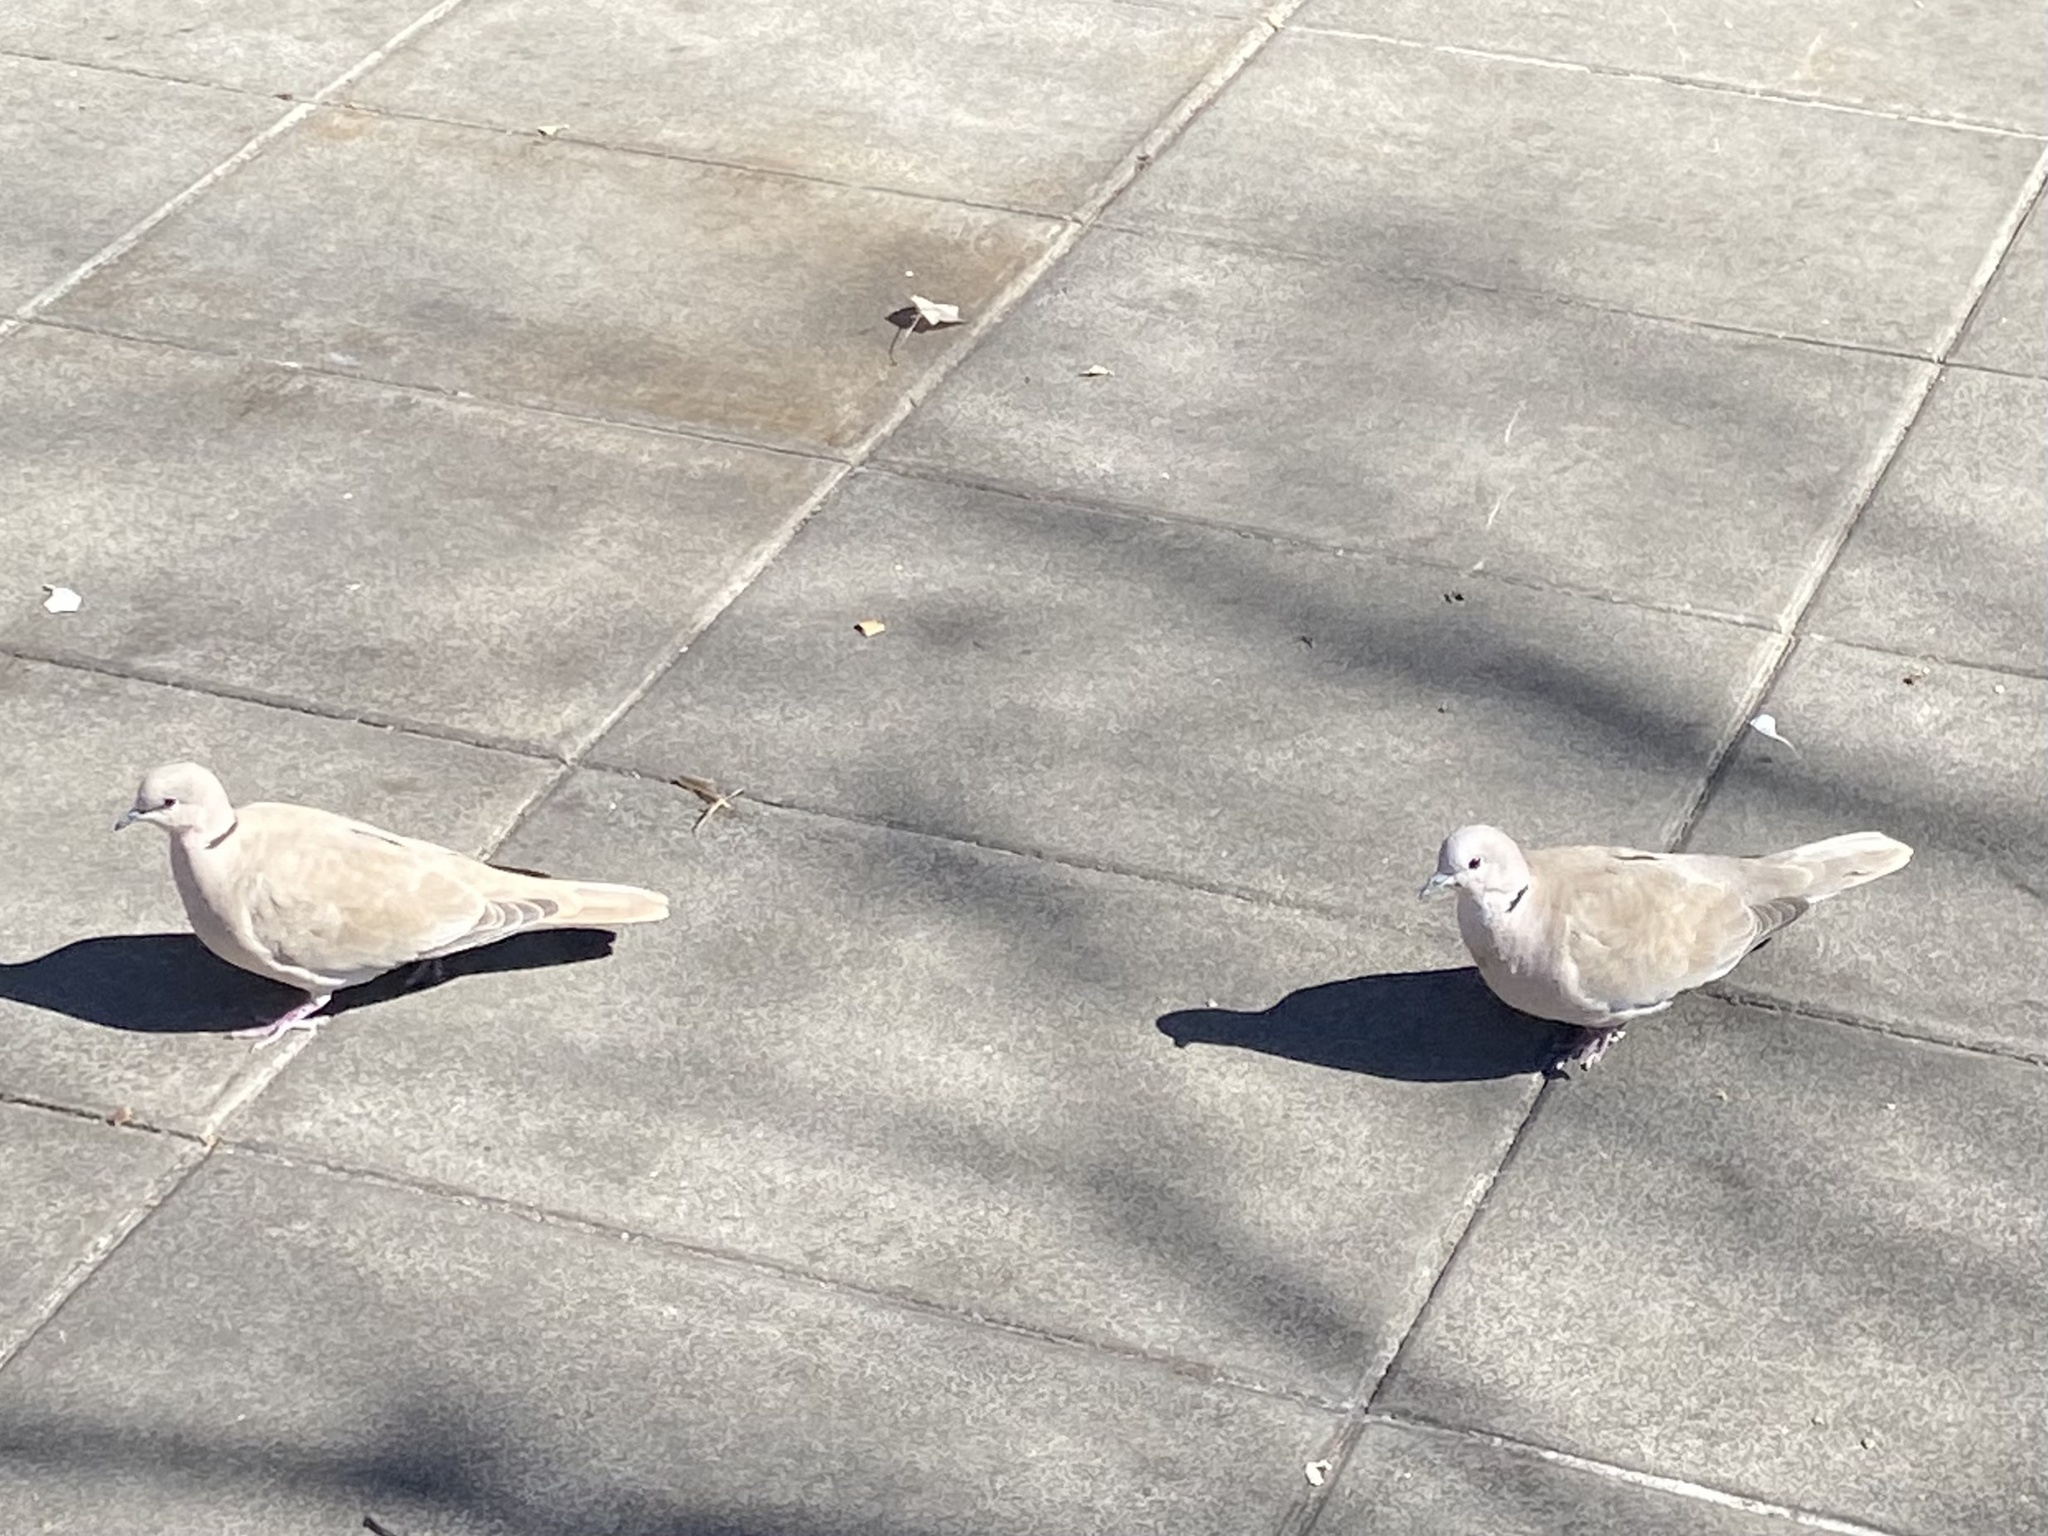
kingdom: Animalia
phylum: Chordata
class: Aves
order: Columbiformes
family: Columbidae
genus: Streptopelia
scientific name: Streptopelia decaocto
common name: Eurasian collared dove
